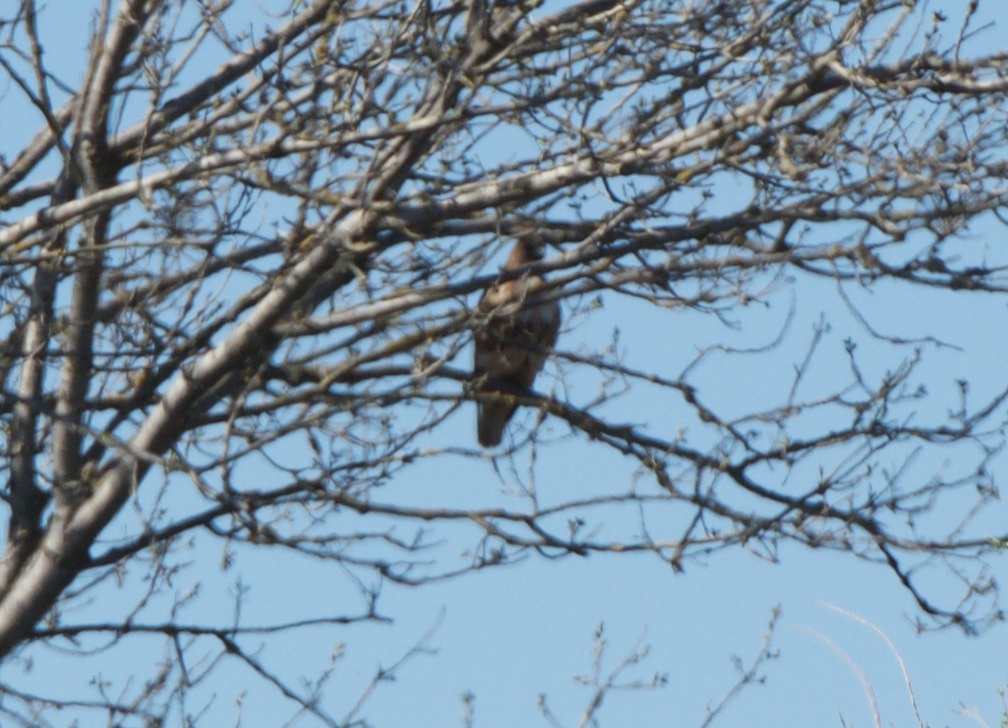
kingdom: Animalia
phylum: Chordata
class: Aves
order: Accipitriformes
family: Accipitridae
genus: Buteo
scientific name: Buteo jamaicensis
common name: Red-tailed hawk
